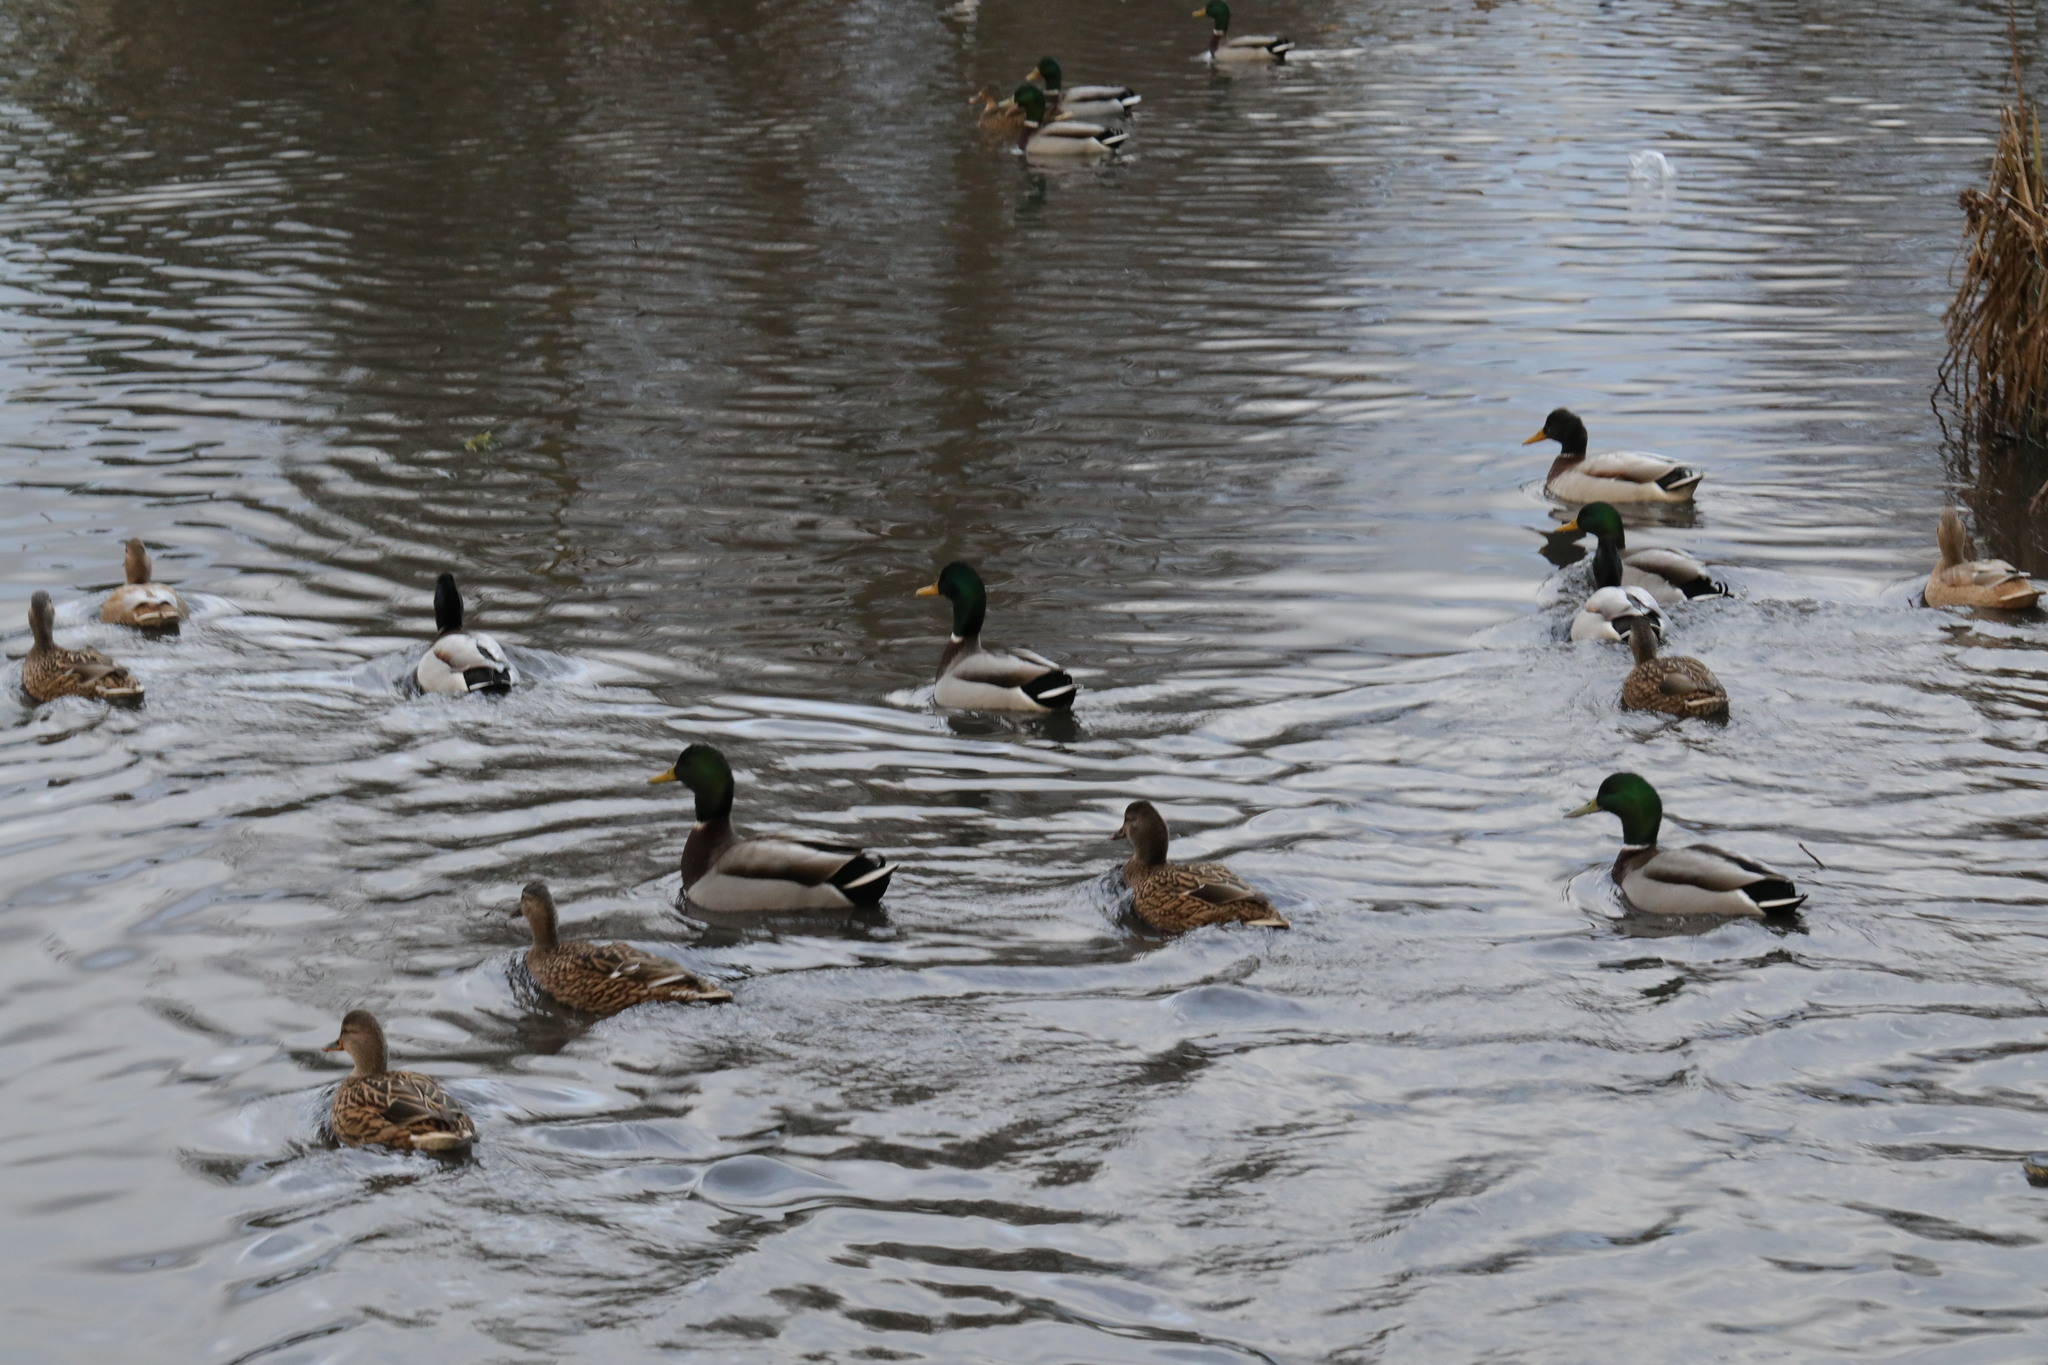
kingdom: Animalia
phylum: Chordata
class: Aves
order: Anseriformes
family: Anatidae
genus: Anas
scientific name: Anas platyrhynchos
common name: Mallard
